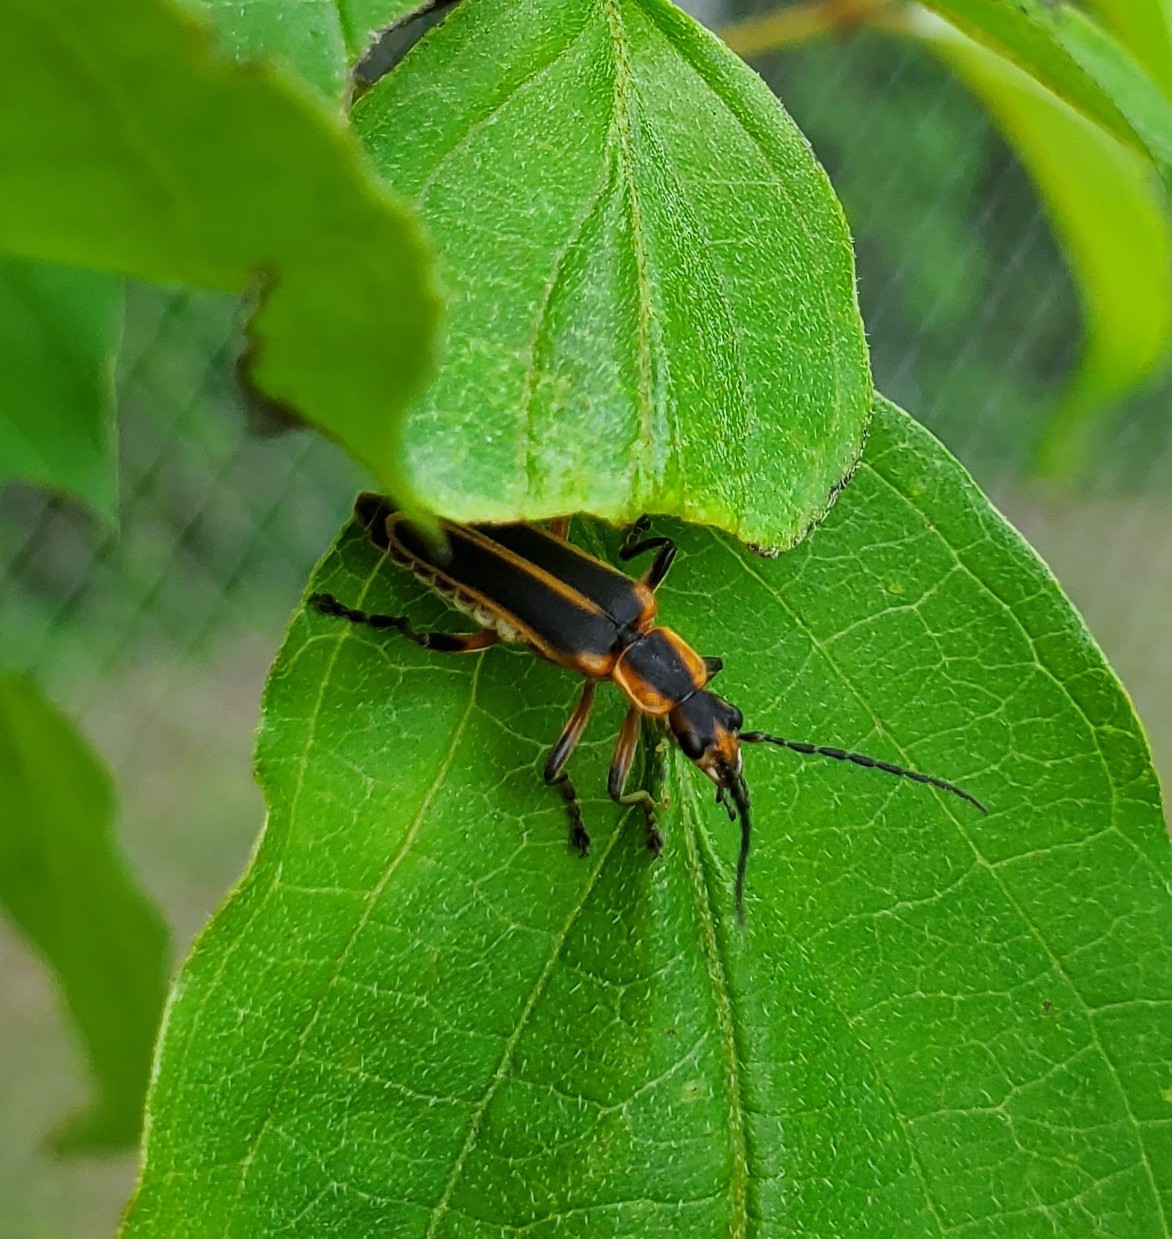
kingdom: Animalia
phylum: Arthropoda
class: Insecta
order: Coleoptera
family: Cantharidae
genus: Chauliognathus
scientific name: Chauliognathus marginatus
